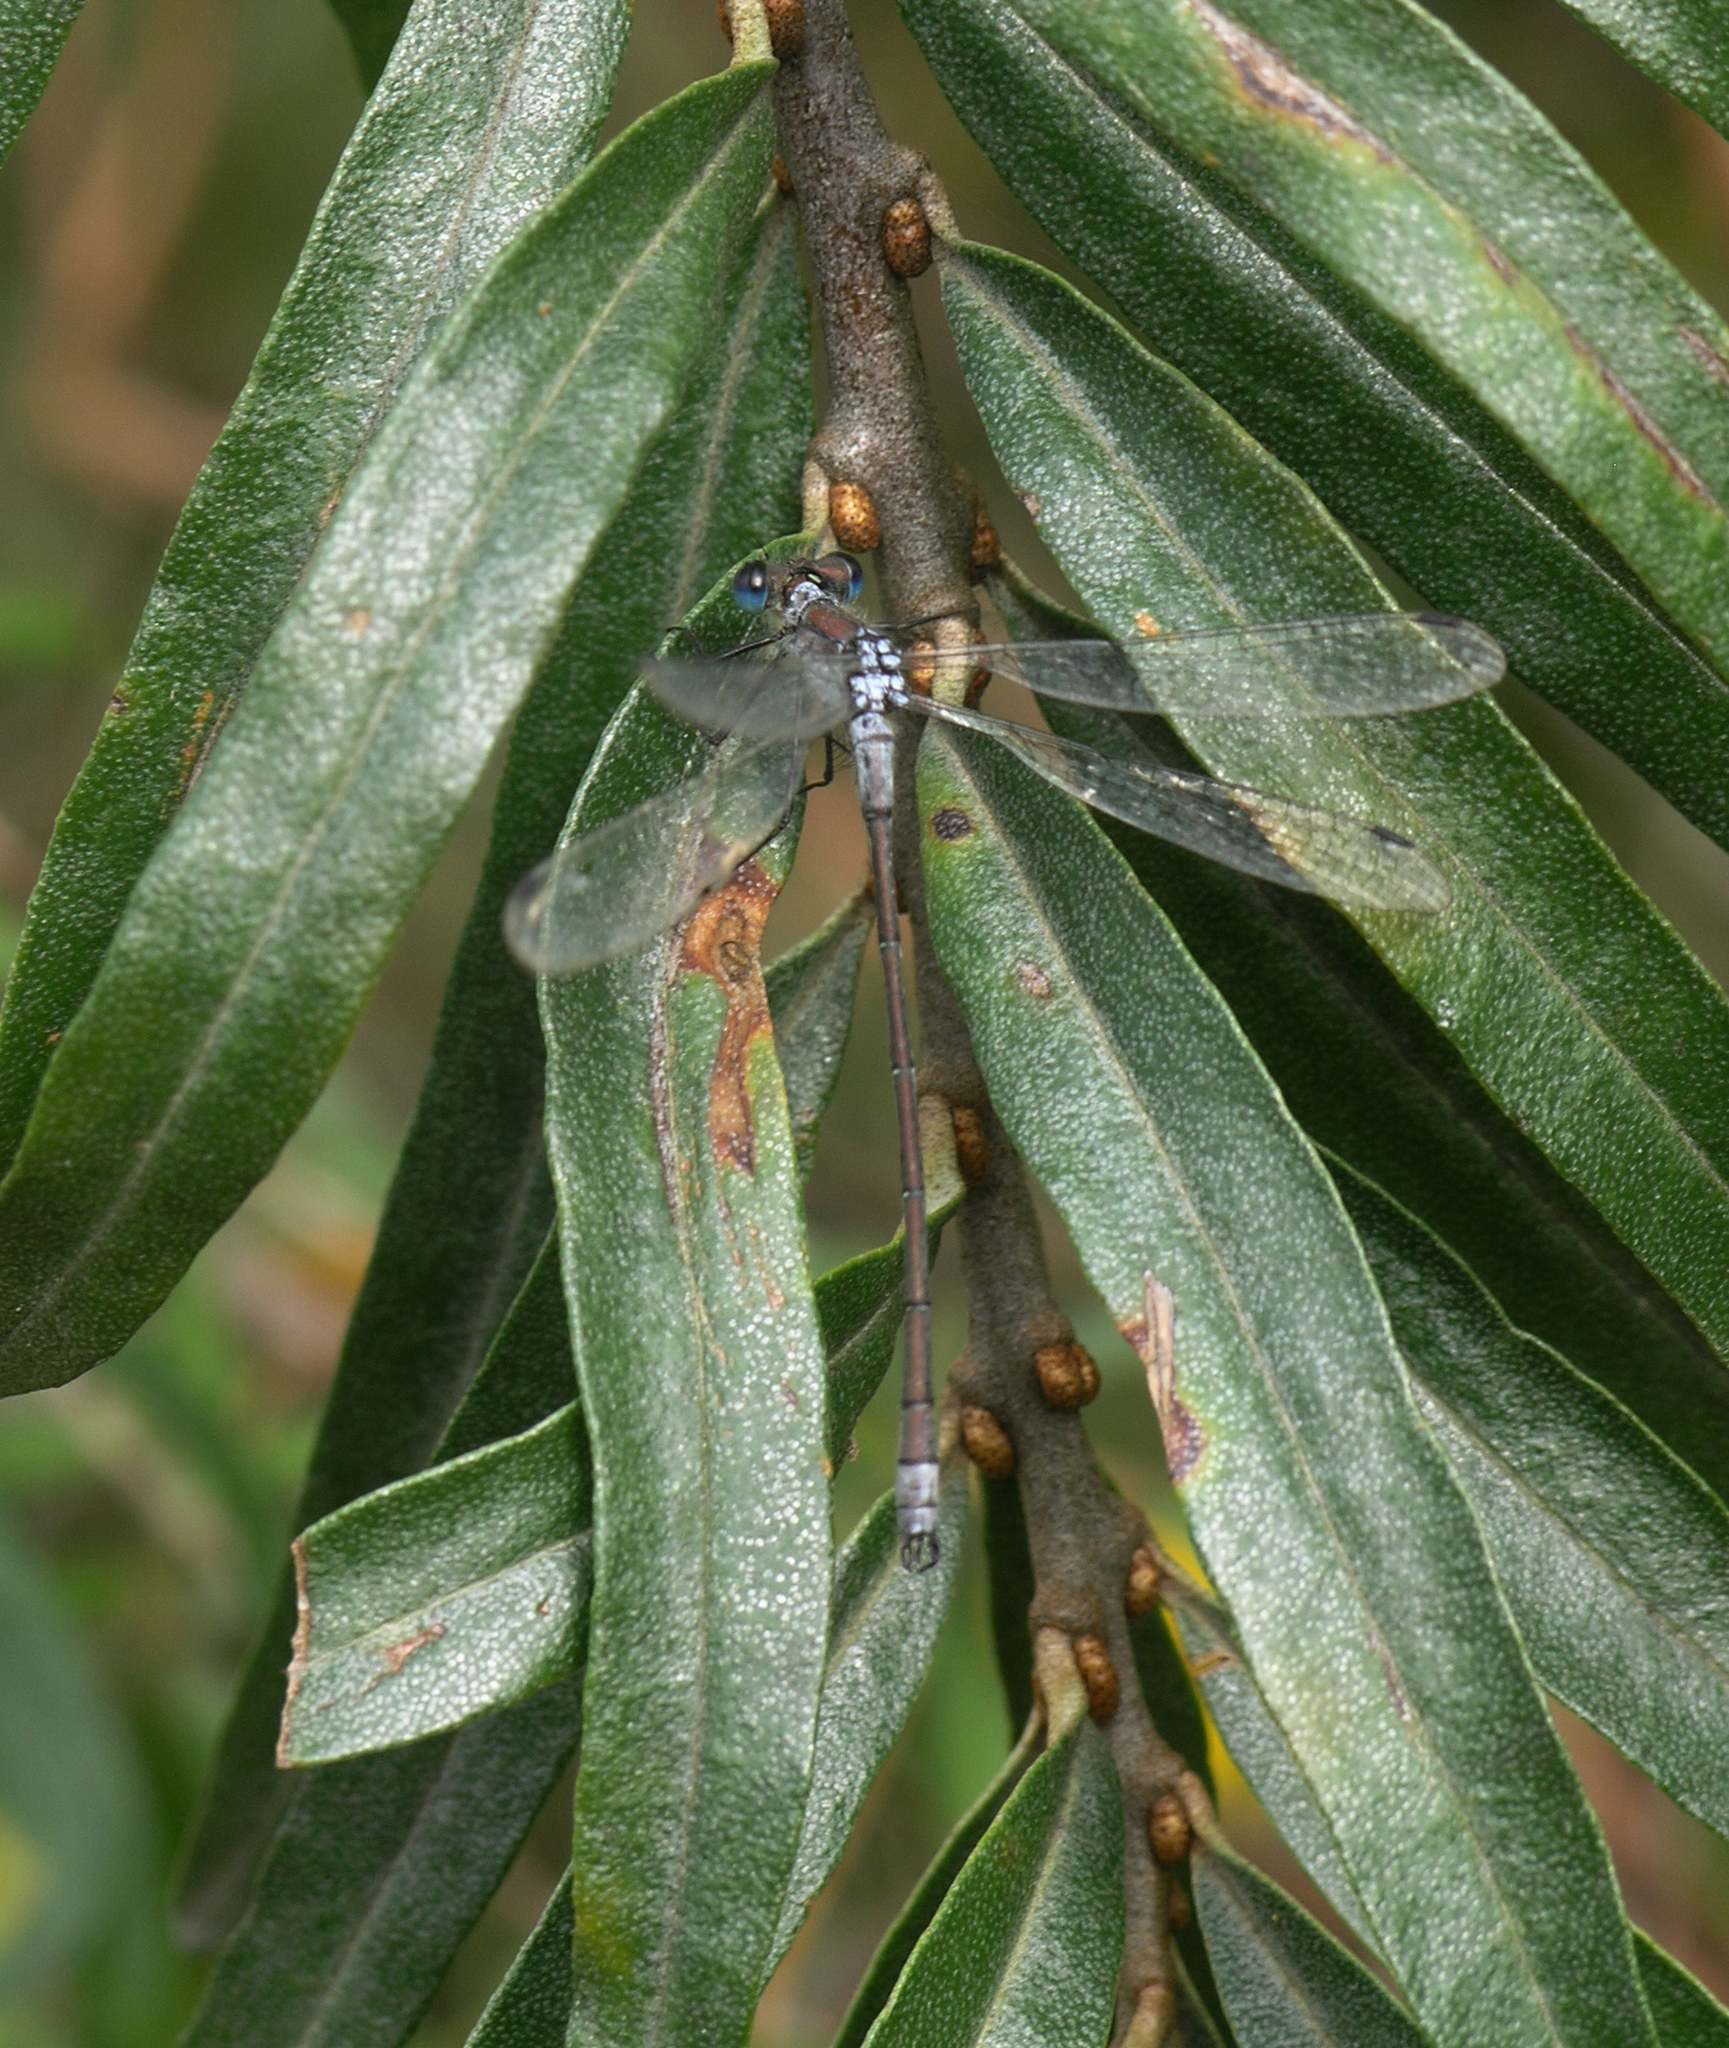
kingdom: Animalia
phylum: Arthropoda
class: Insecta
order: Odonata
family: Lestidae
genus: Lestes
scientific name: Lestes sponsa
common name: Common spreadwing
